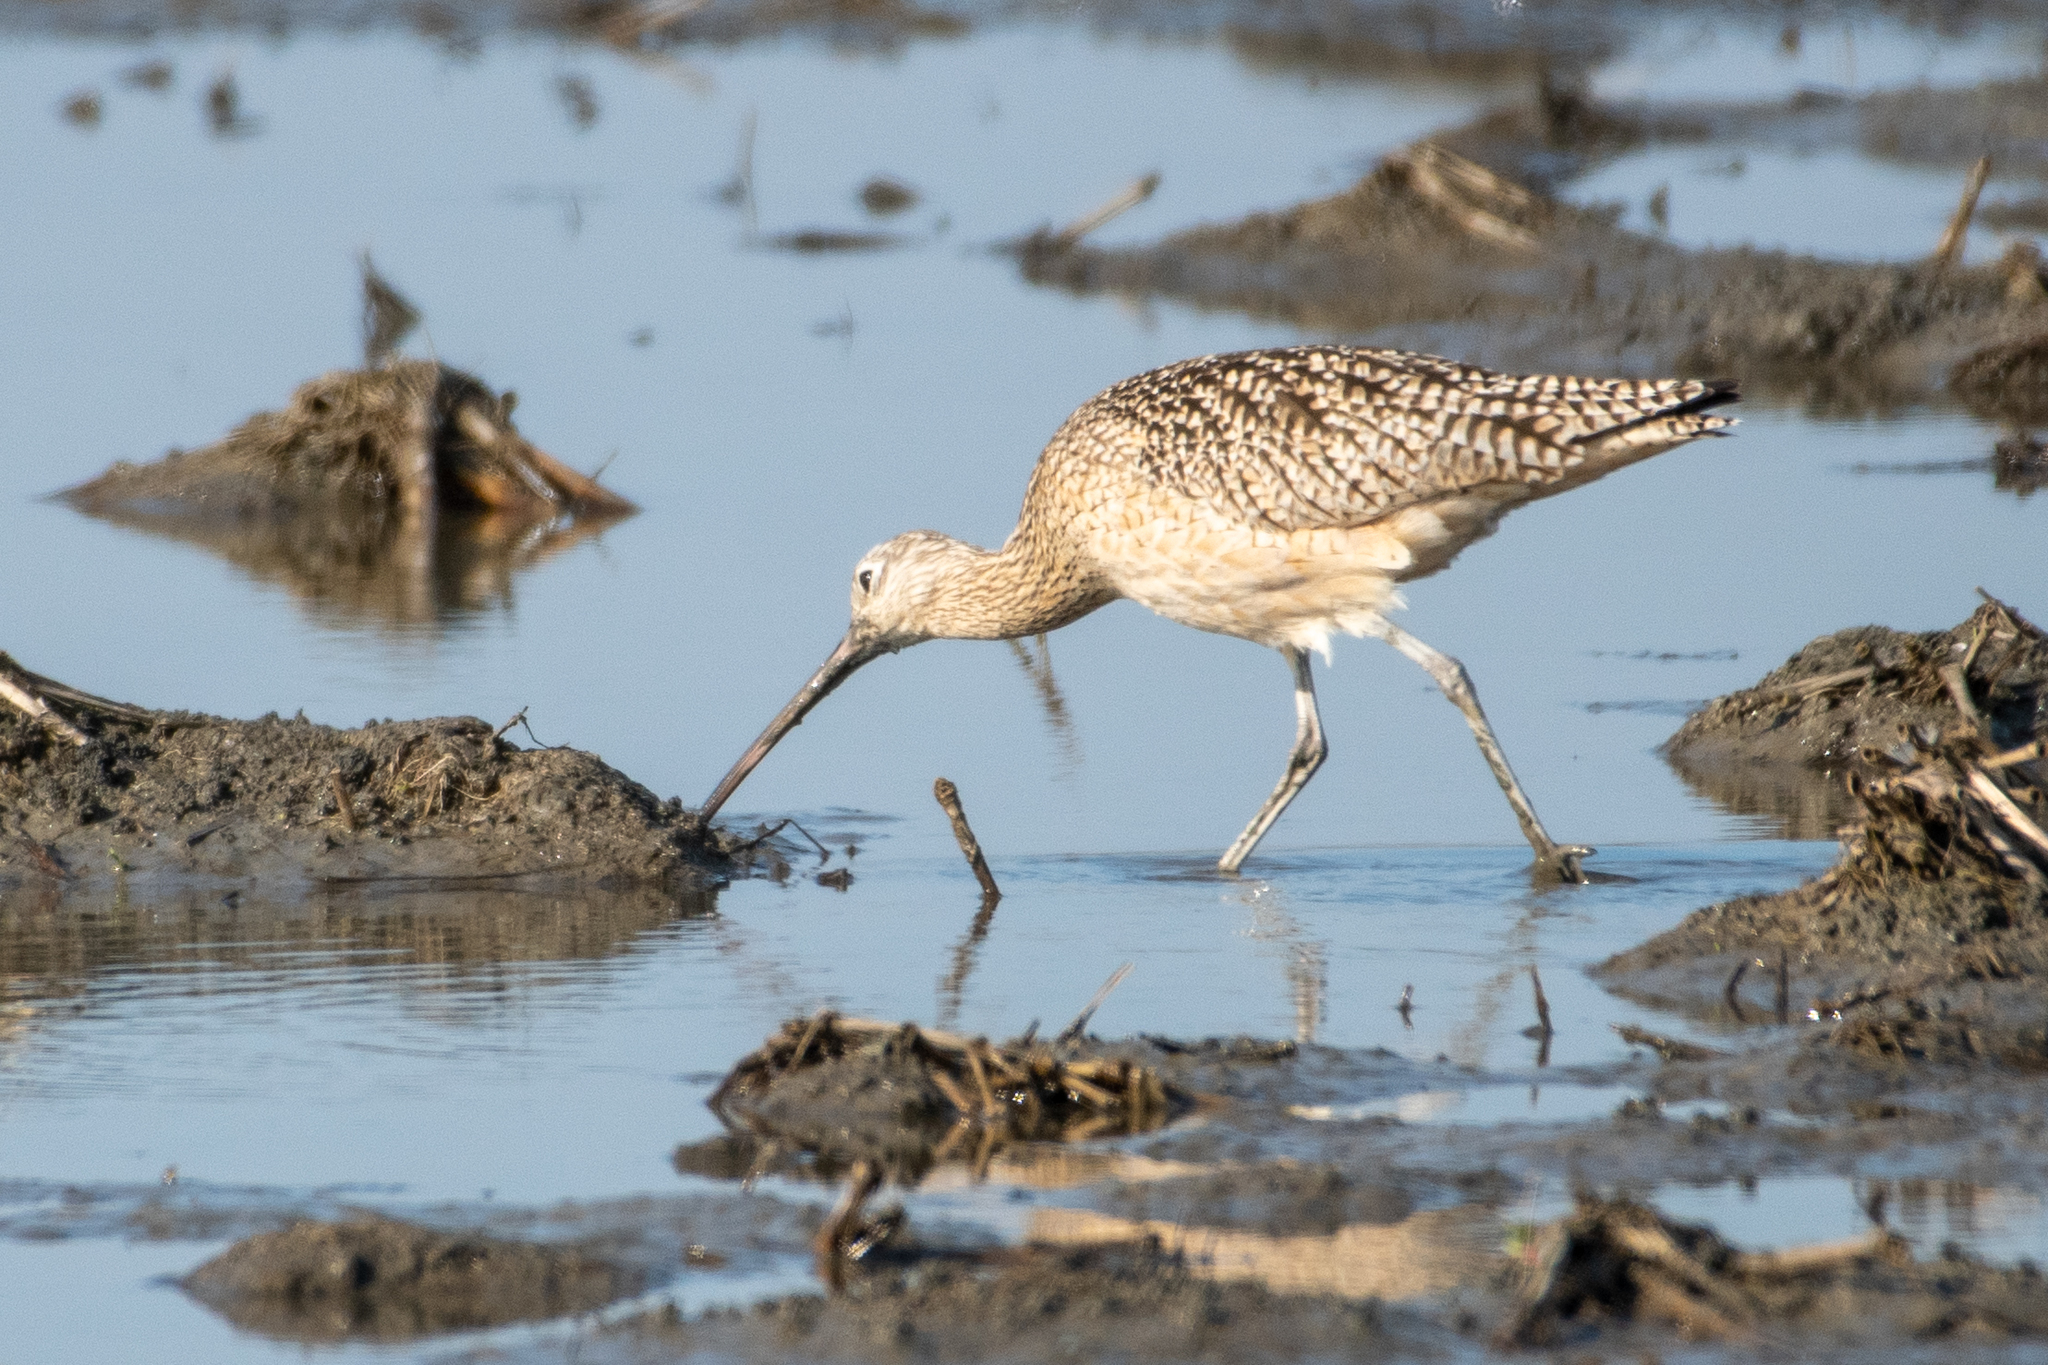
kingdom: Animalia
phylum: Chordata
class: Aves
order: Charadriiformes
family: Scolopacidae
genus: Numenius
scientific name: Numenius americanus
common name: Long-billed curlew
